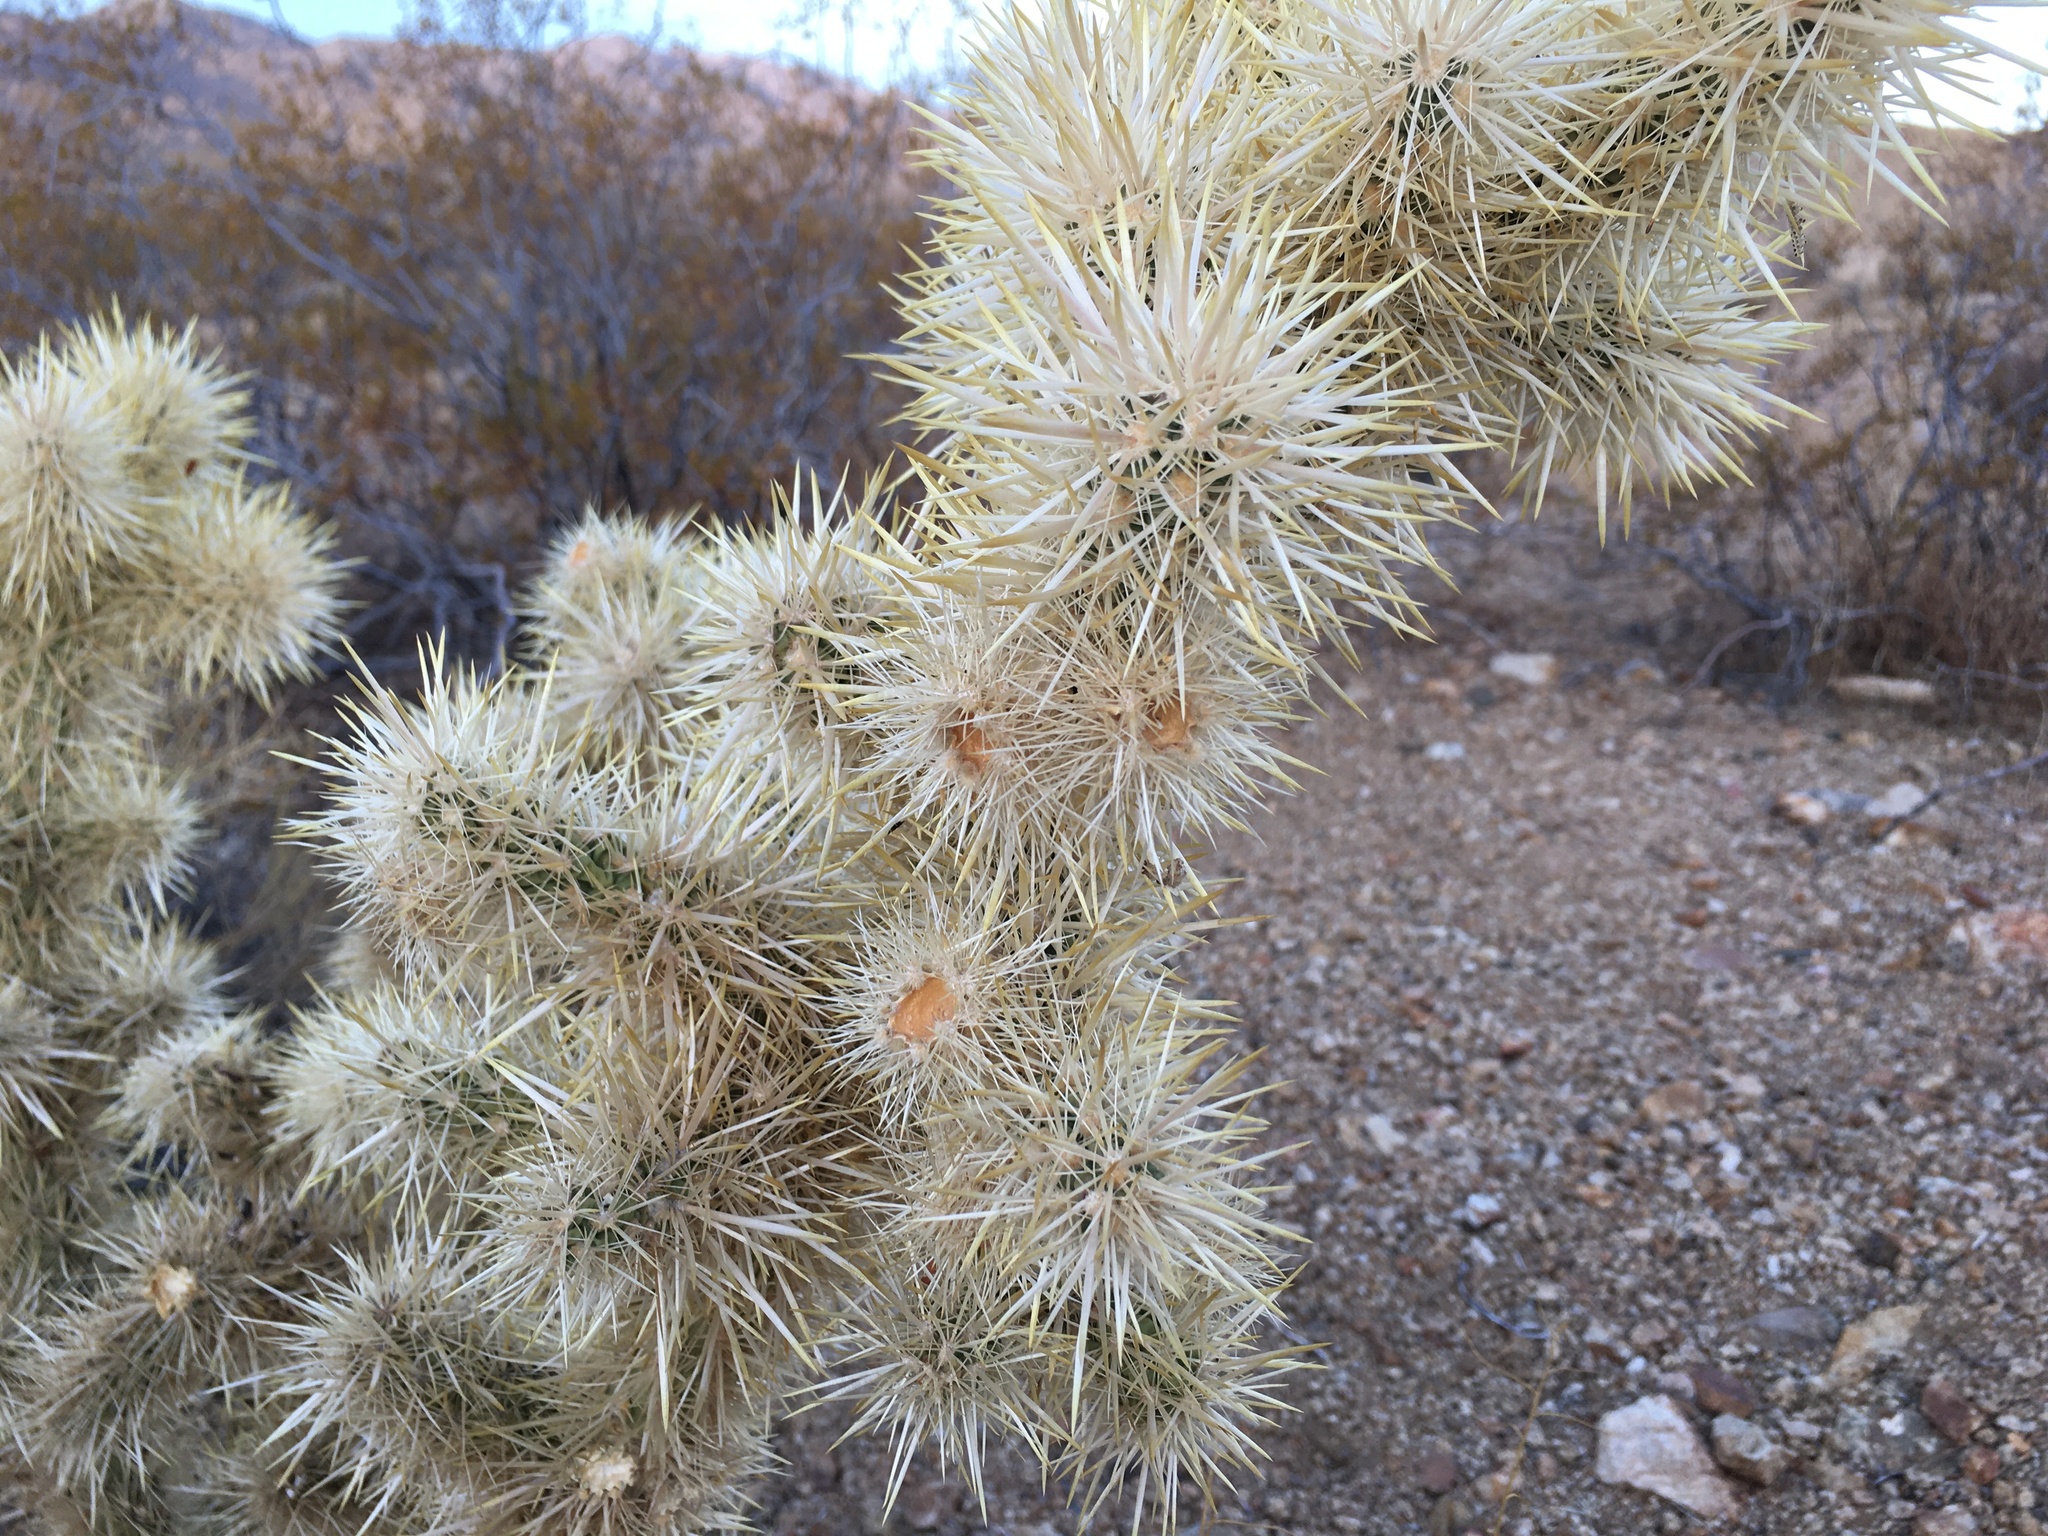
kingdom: Plantae
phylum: Tracheophyta
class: Magnoliopsida
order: Caryophyllales
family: Cactaceae
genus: Cylindropuntia
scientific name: Cylindropuntia echinocarpa
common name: Ground cholla
